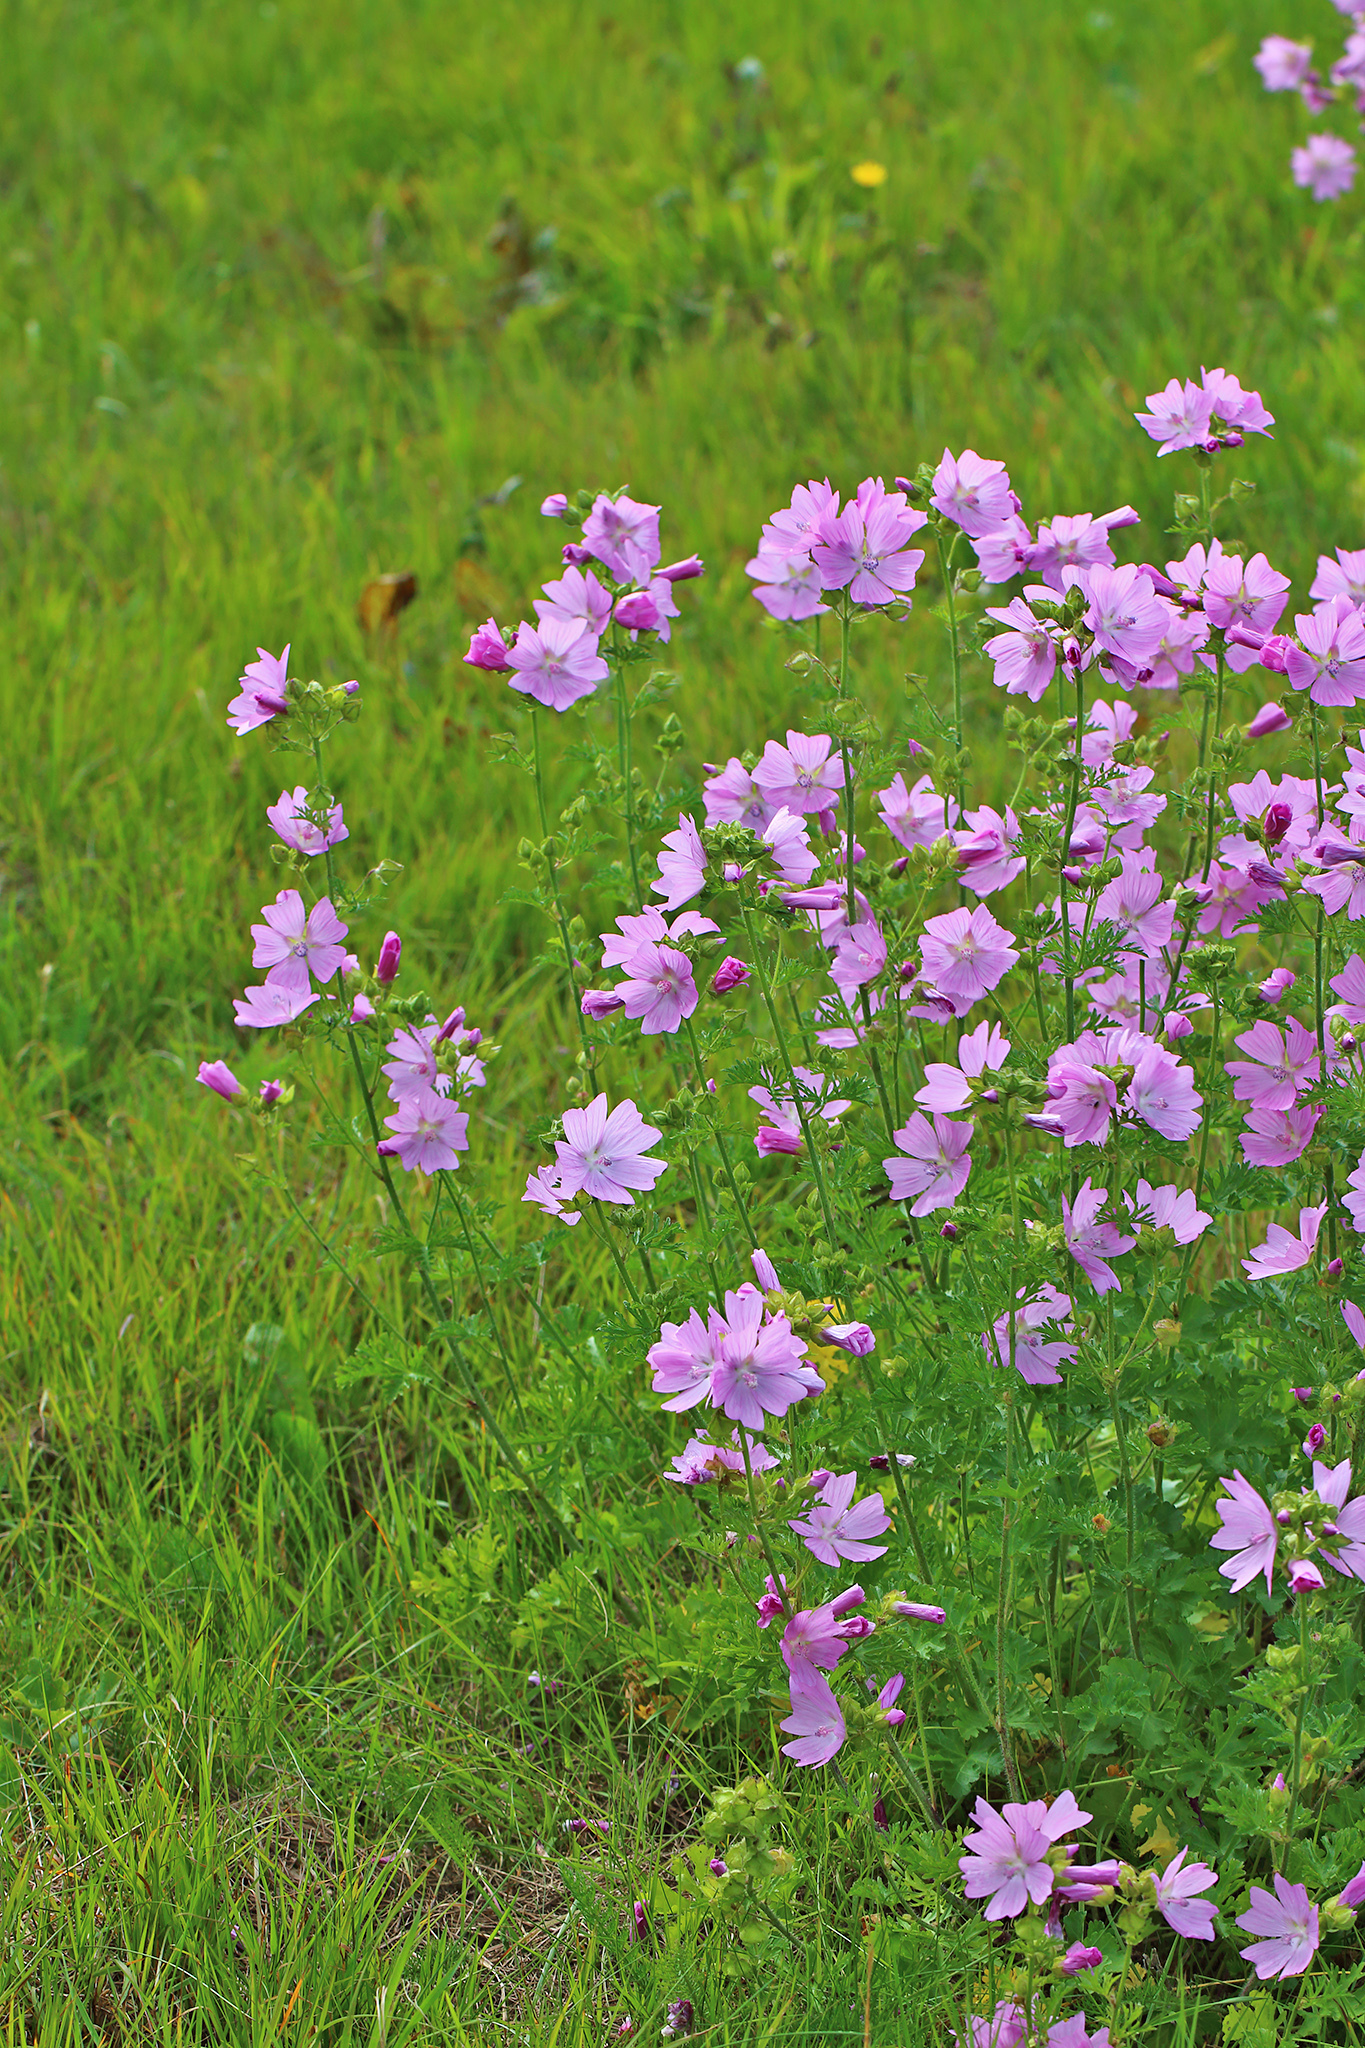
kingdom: Plantae
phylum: Tracheophyta
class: Magnoliopsida
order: Malvales
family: Malvaceae
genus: Malva
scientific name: Malva moschata
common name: Musk mallow
